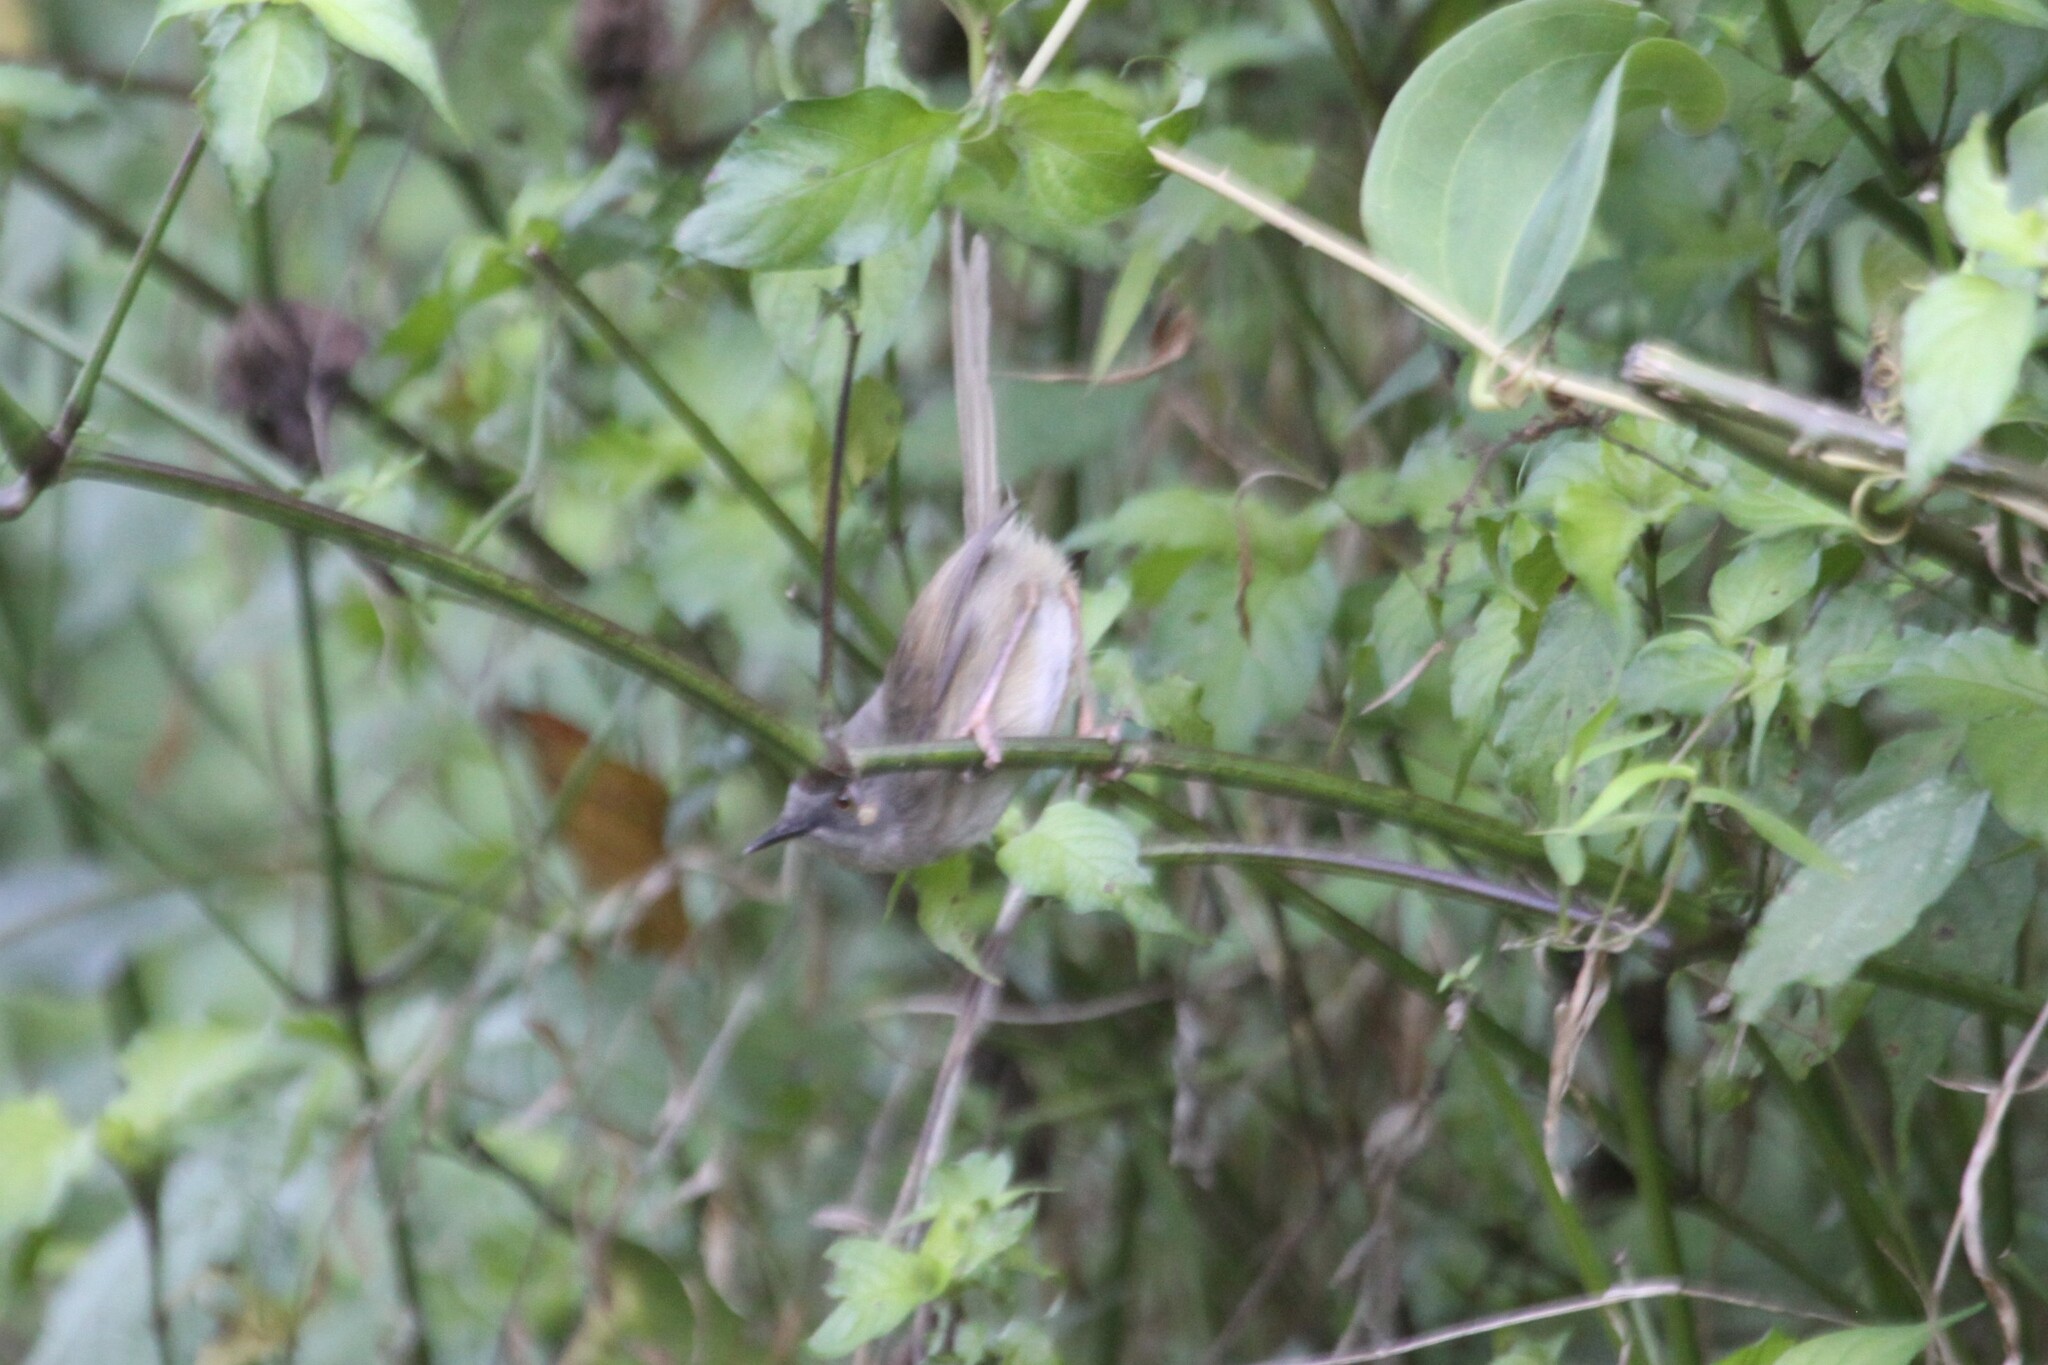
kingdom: Animalia
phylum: Chordata
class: Aves
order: Passeriformes
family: Cisticolidae
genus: Oreophilais
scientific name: Oreophilais robertsi
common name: Roberts's warbler
